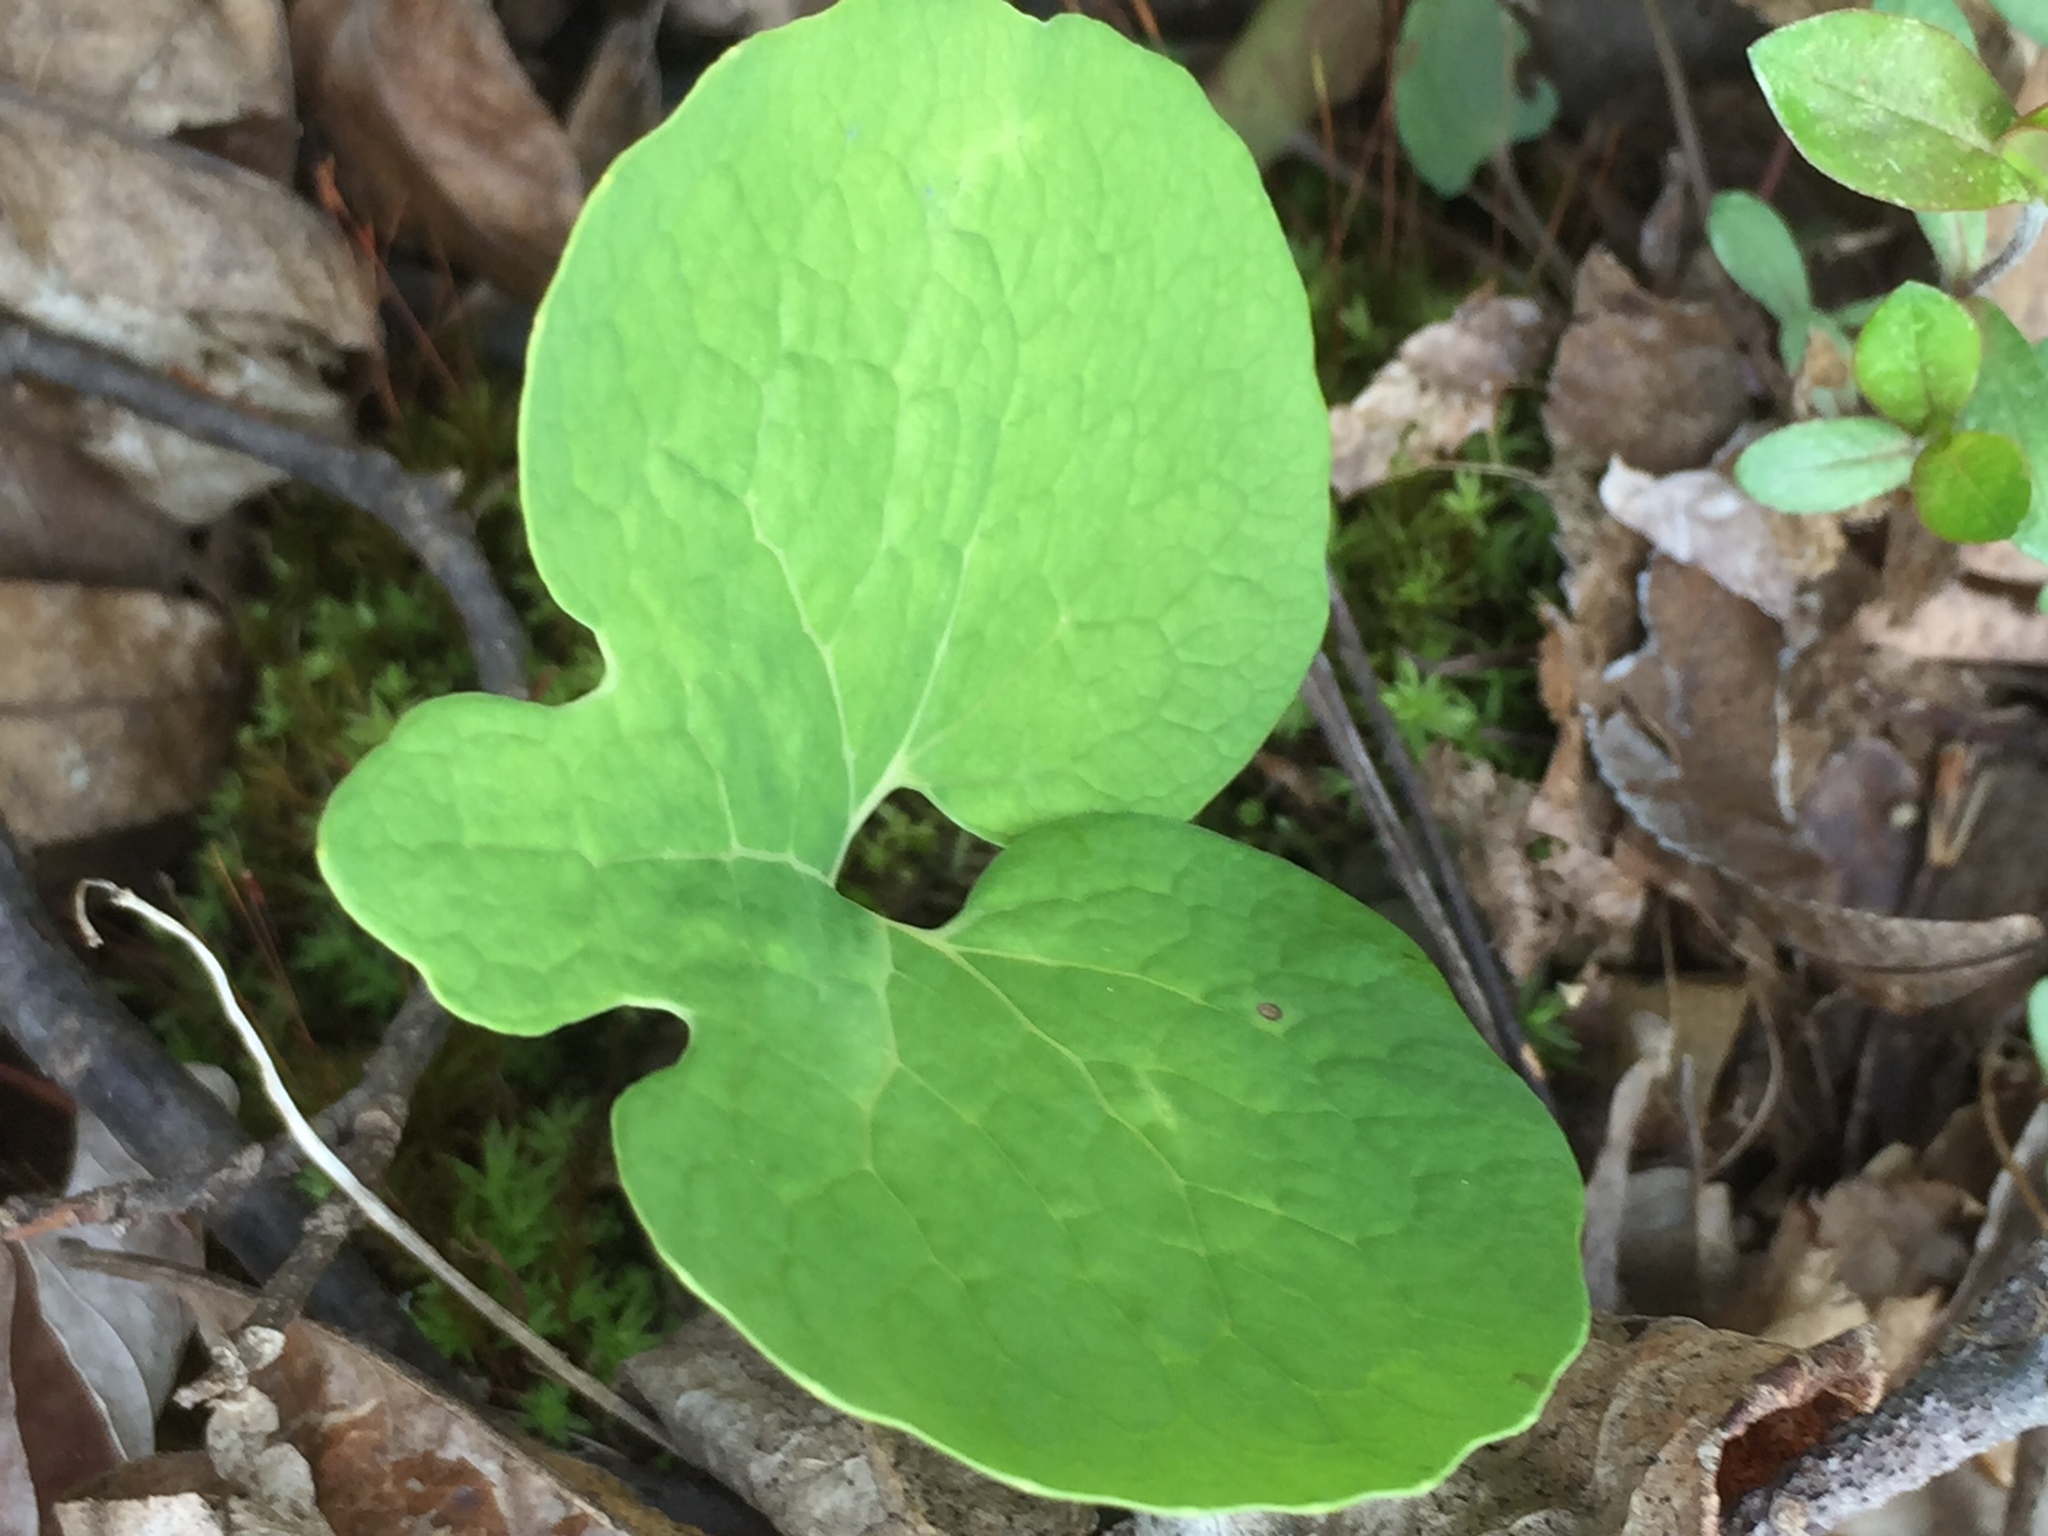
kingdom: Plantae
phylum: Tracheophyta
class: Magnoliopsida
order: Ranunculales
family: Papaveraceae
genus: Sanguinaria
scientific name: Sanguinaria canadensis
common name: Bloodroot
